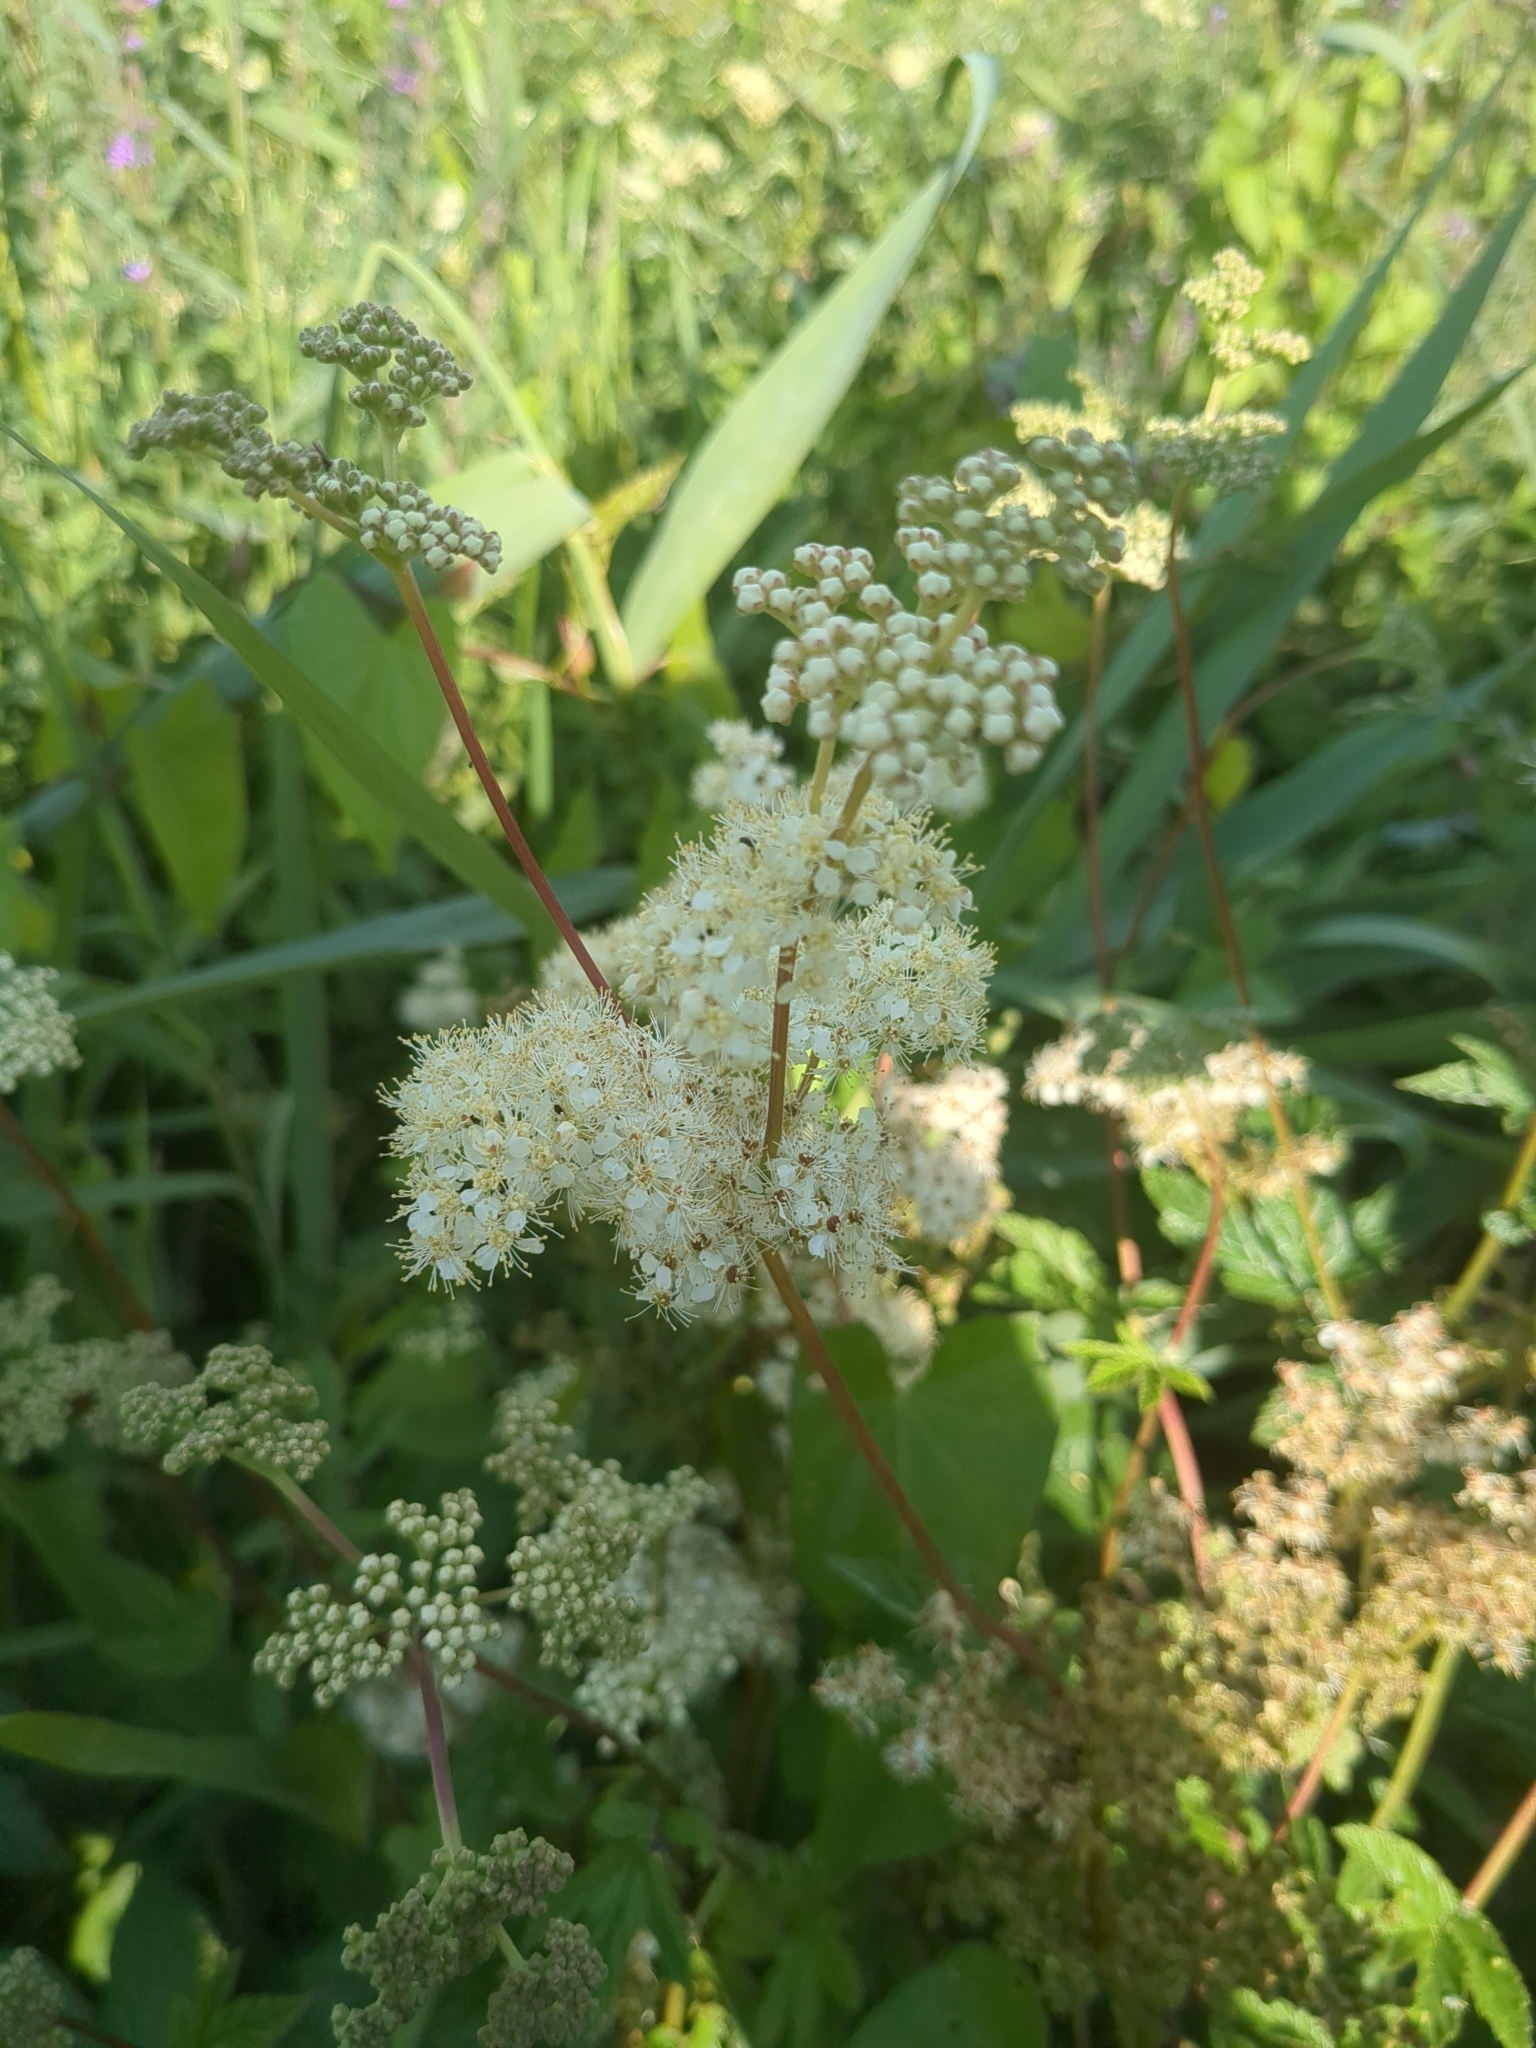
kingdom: Plantae
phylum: Tracheophyta
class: Magnoliopsida
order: Rosales
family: Rosaceae
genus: Filipendula
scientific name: Filipendula ulmaria
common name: Meadowsweet
